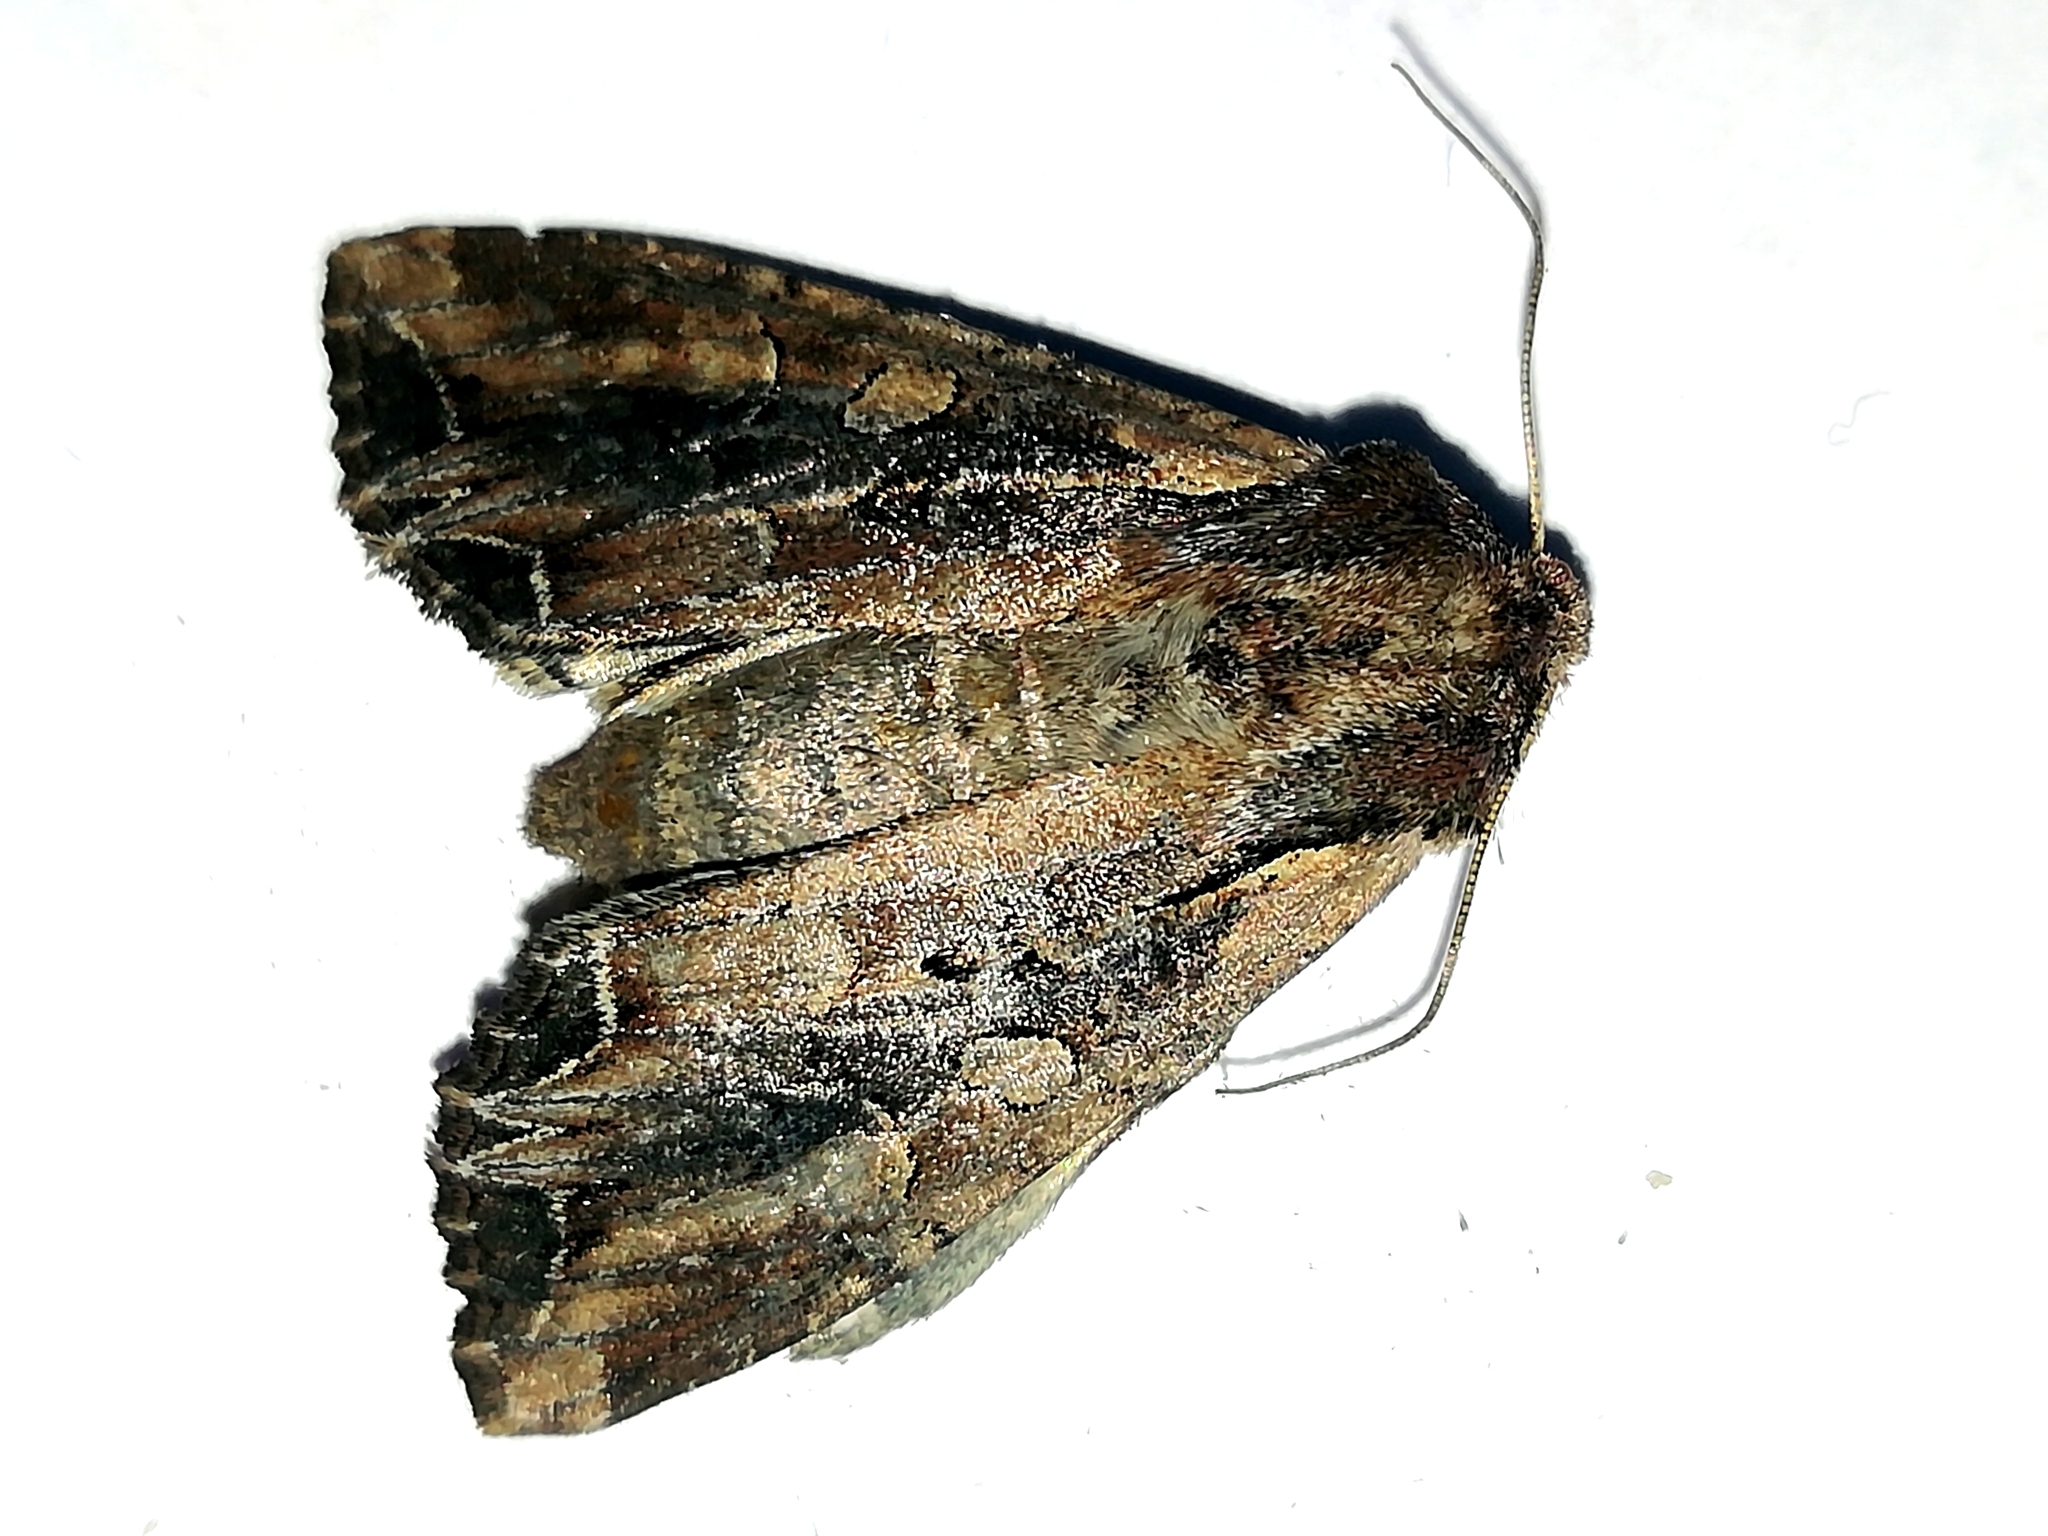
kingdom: Animalia
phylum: Arthropoda
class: Insecta
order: Lepidoptera
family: Noctuidae
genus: Lacanobia
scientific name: Lacanobia suasa
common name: Dog's tooth
